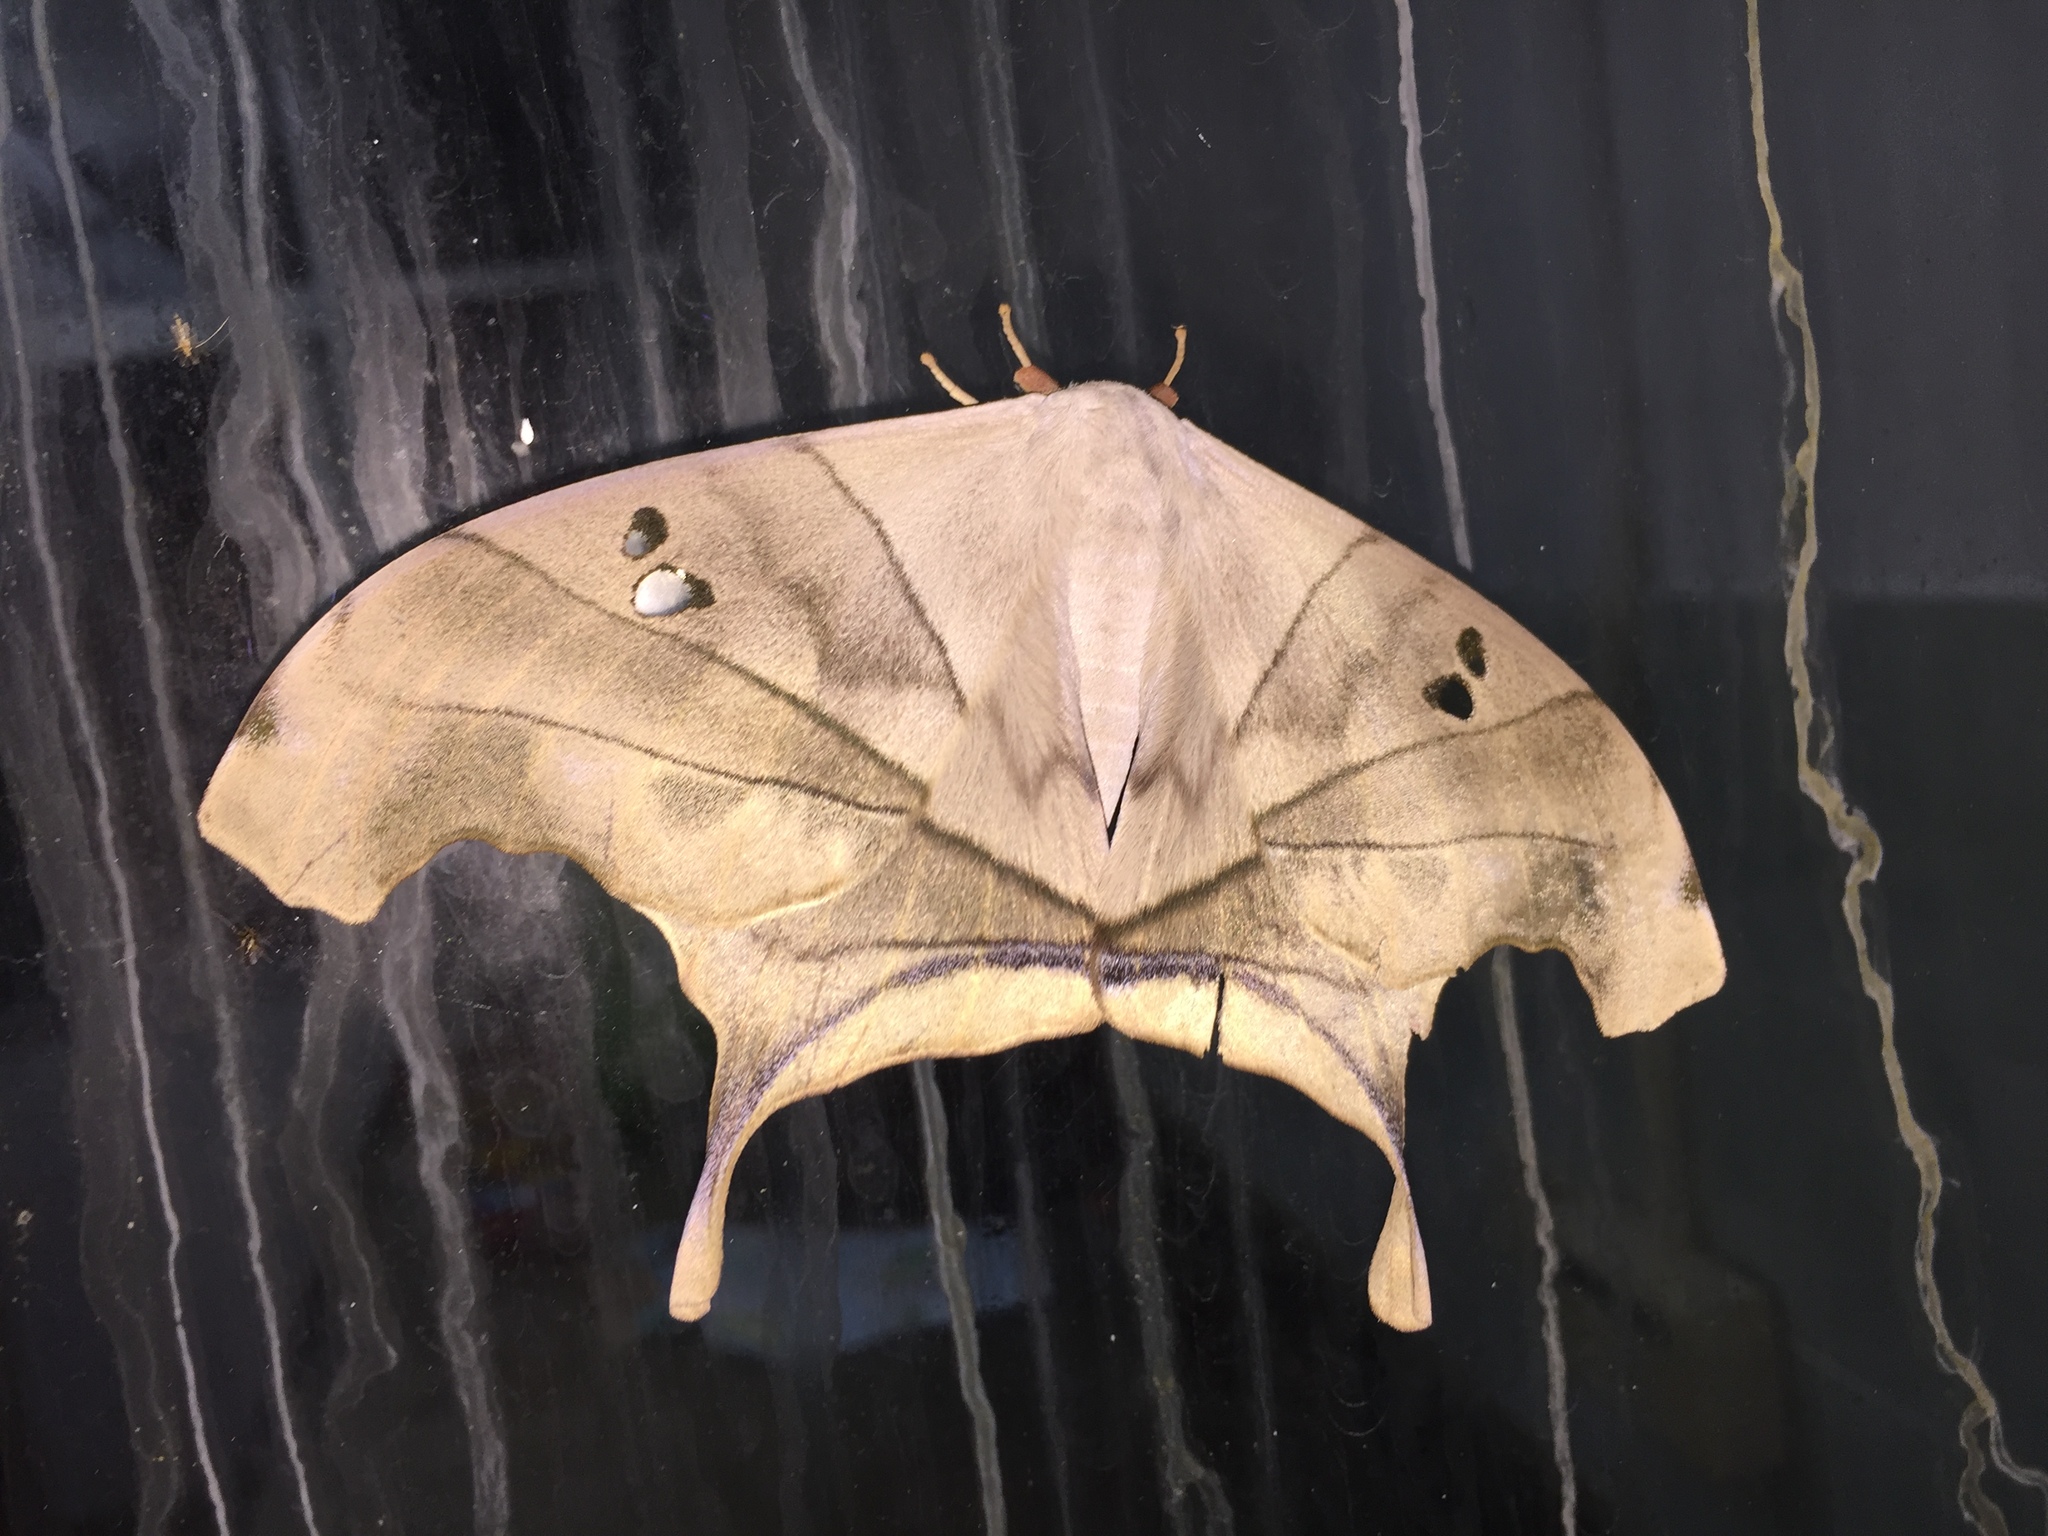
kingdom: Animalia
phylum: Arthropoda
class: Insecta
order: Lepidoptera
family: Saturniidae
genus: Dysdaemonia
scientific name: Dysdaemonia boreas
